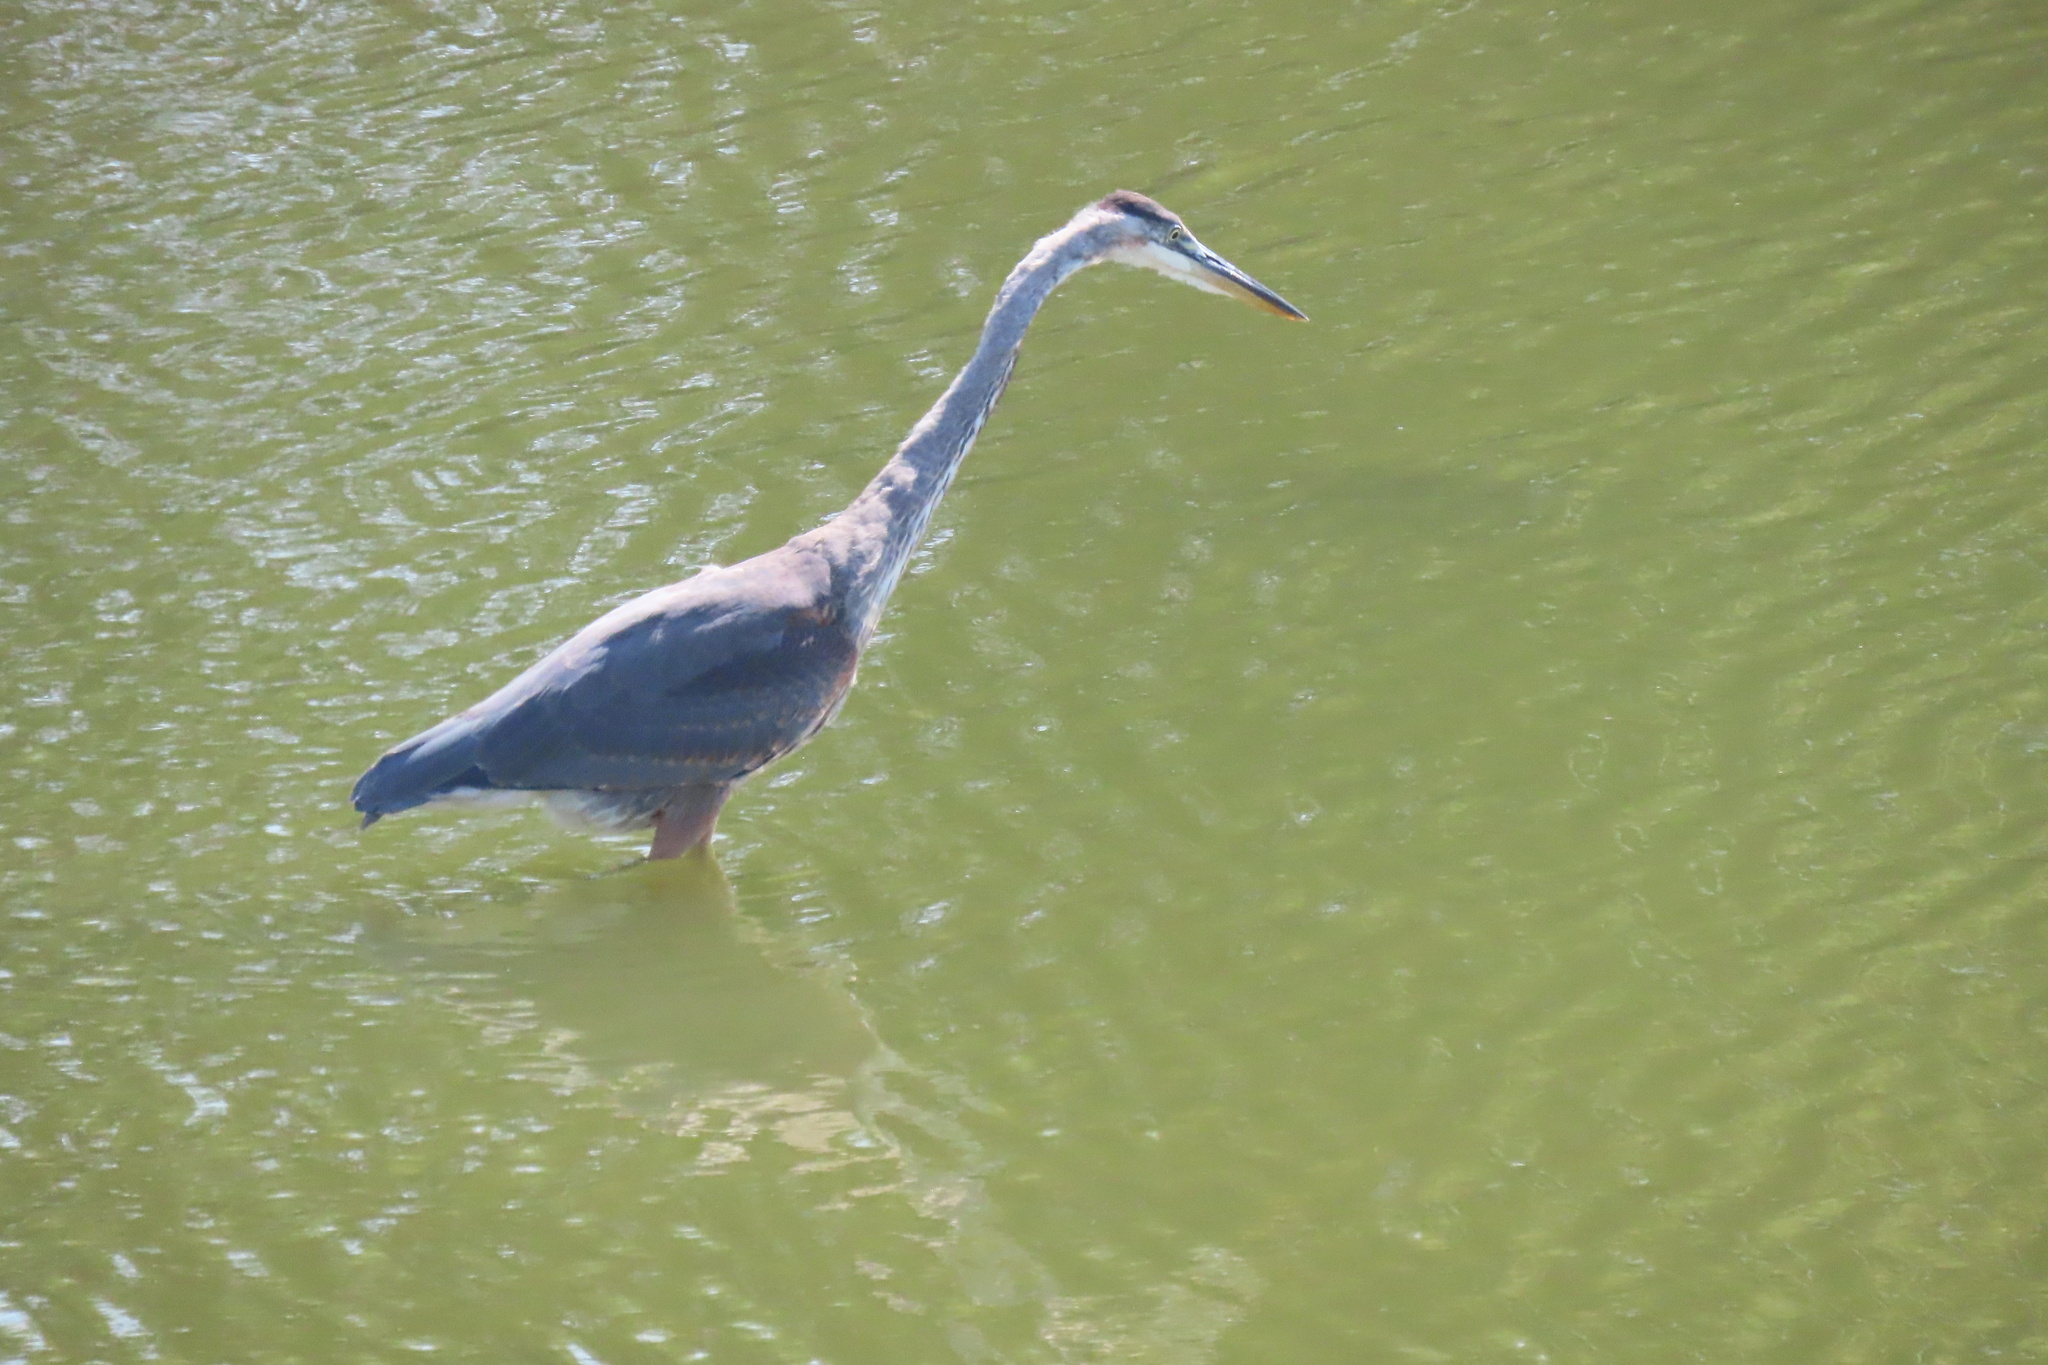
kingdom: Animalia
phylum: Chordata
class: Aves
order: Pelecaniformes
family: Ardeidae
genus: Ardea
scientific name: Ardea herodias
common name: Great blue heron
